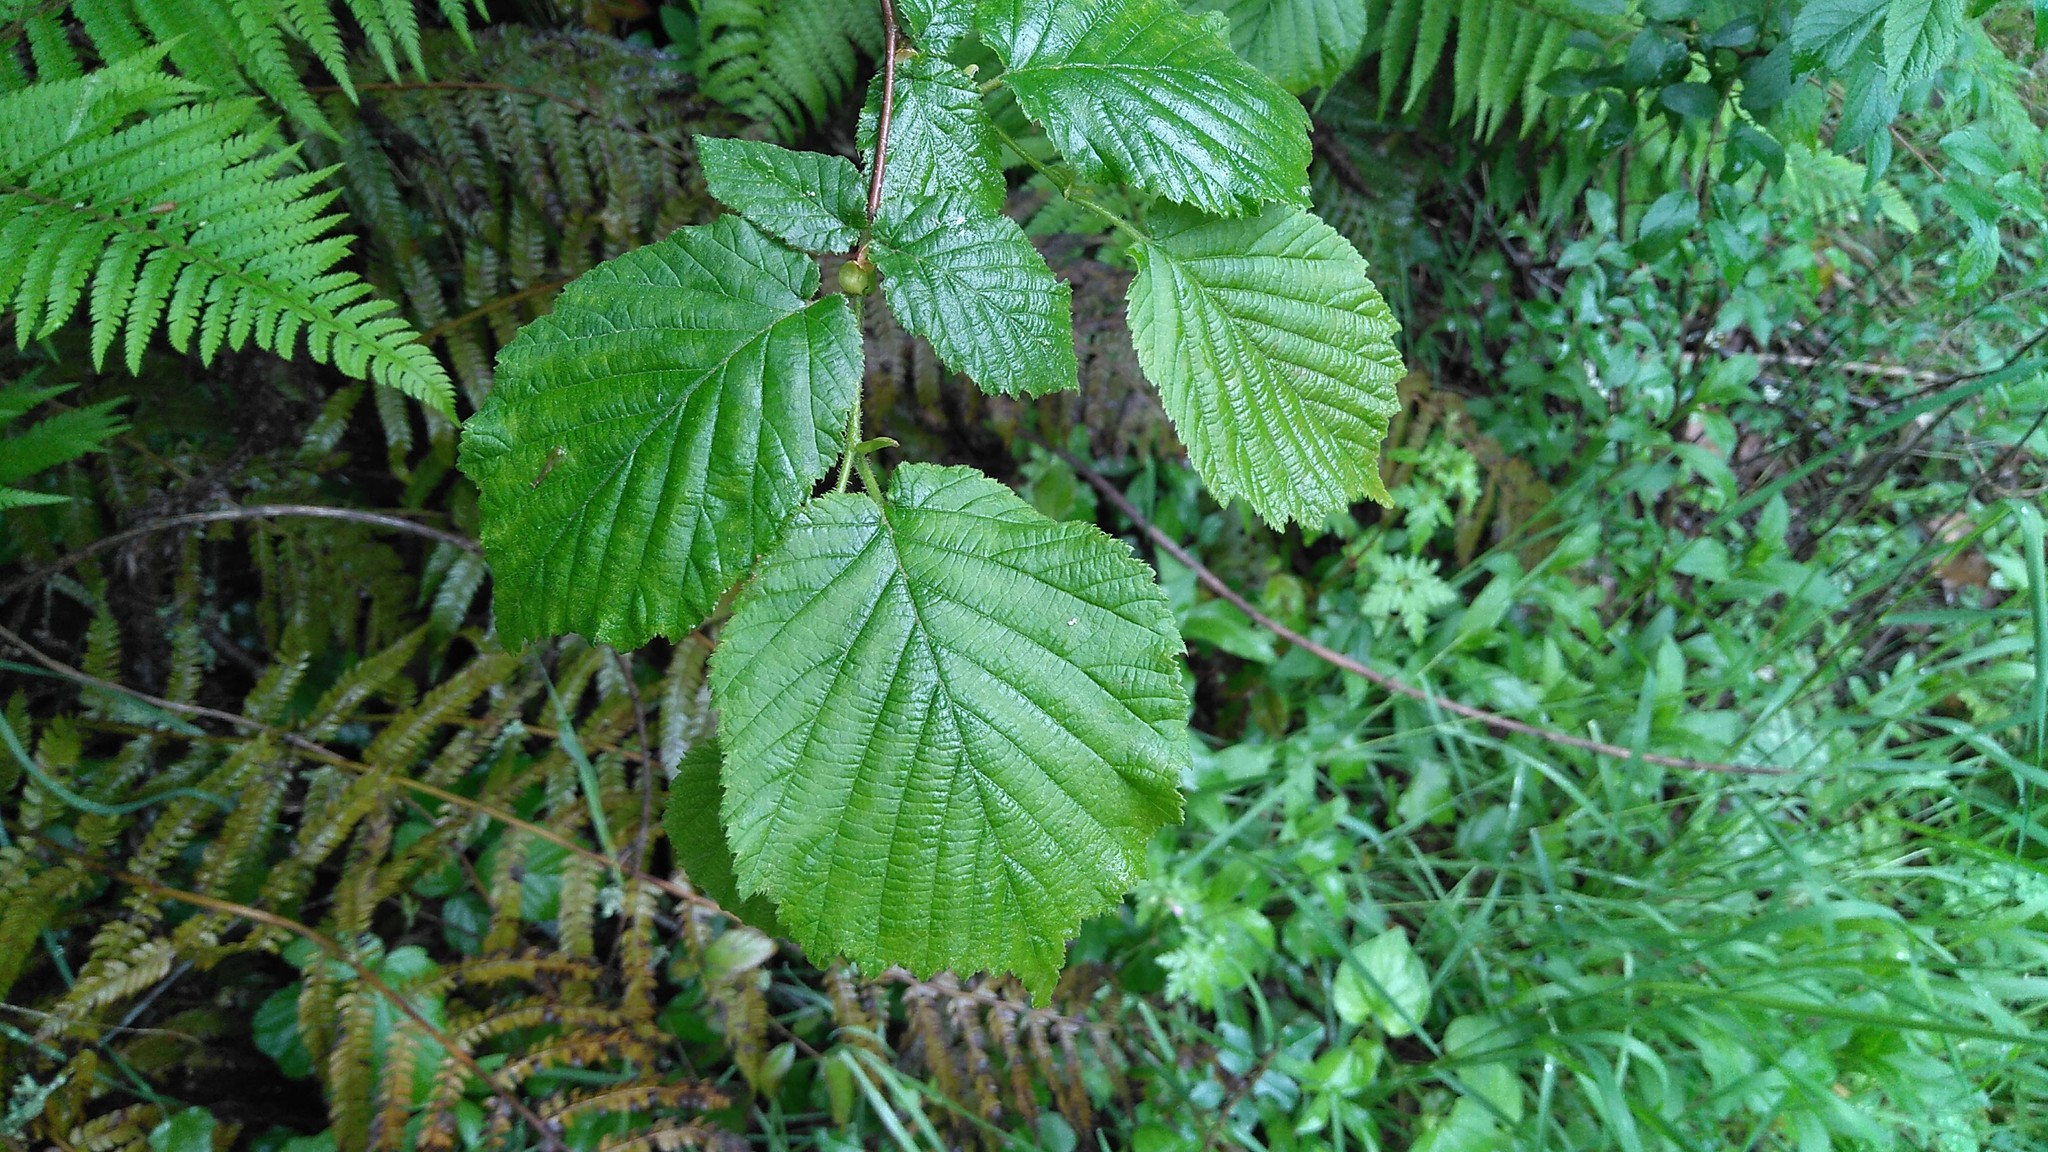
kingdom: Plantae
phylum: Tracheophyta
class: Magnoliopsida
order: Fagales
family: Betulaceae
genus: Corylus
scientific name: Corylus avellana
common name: European hazel
